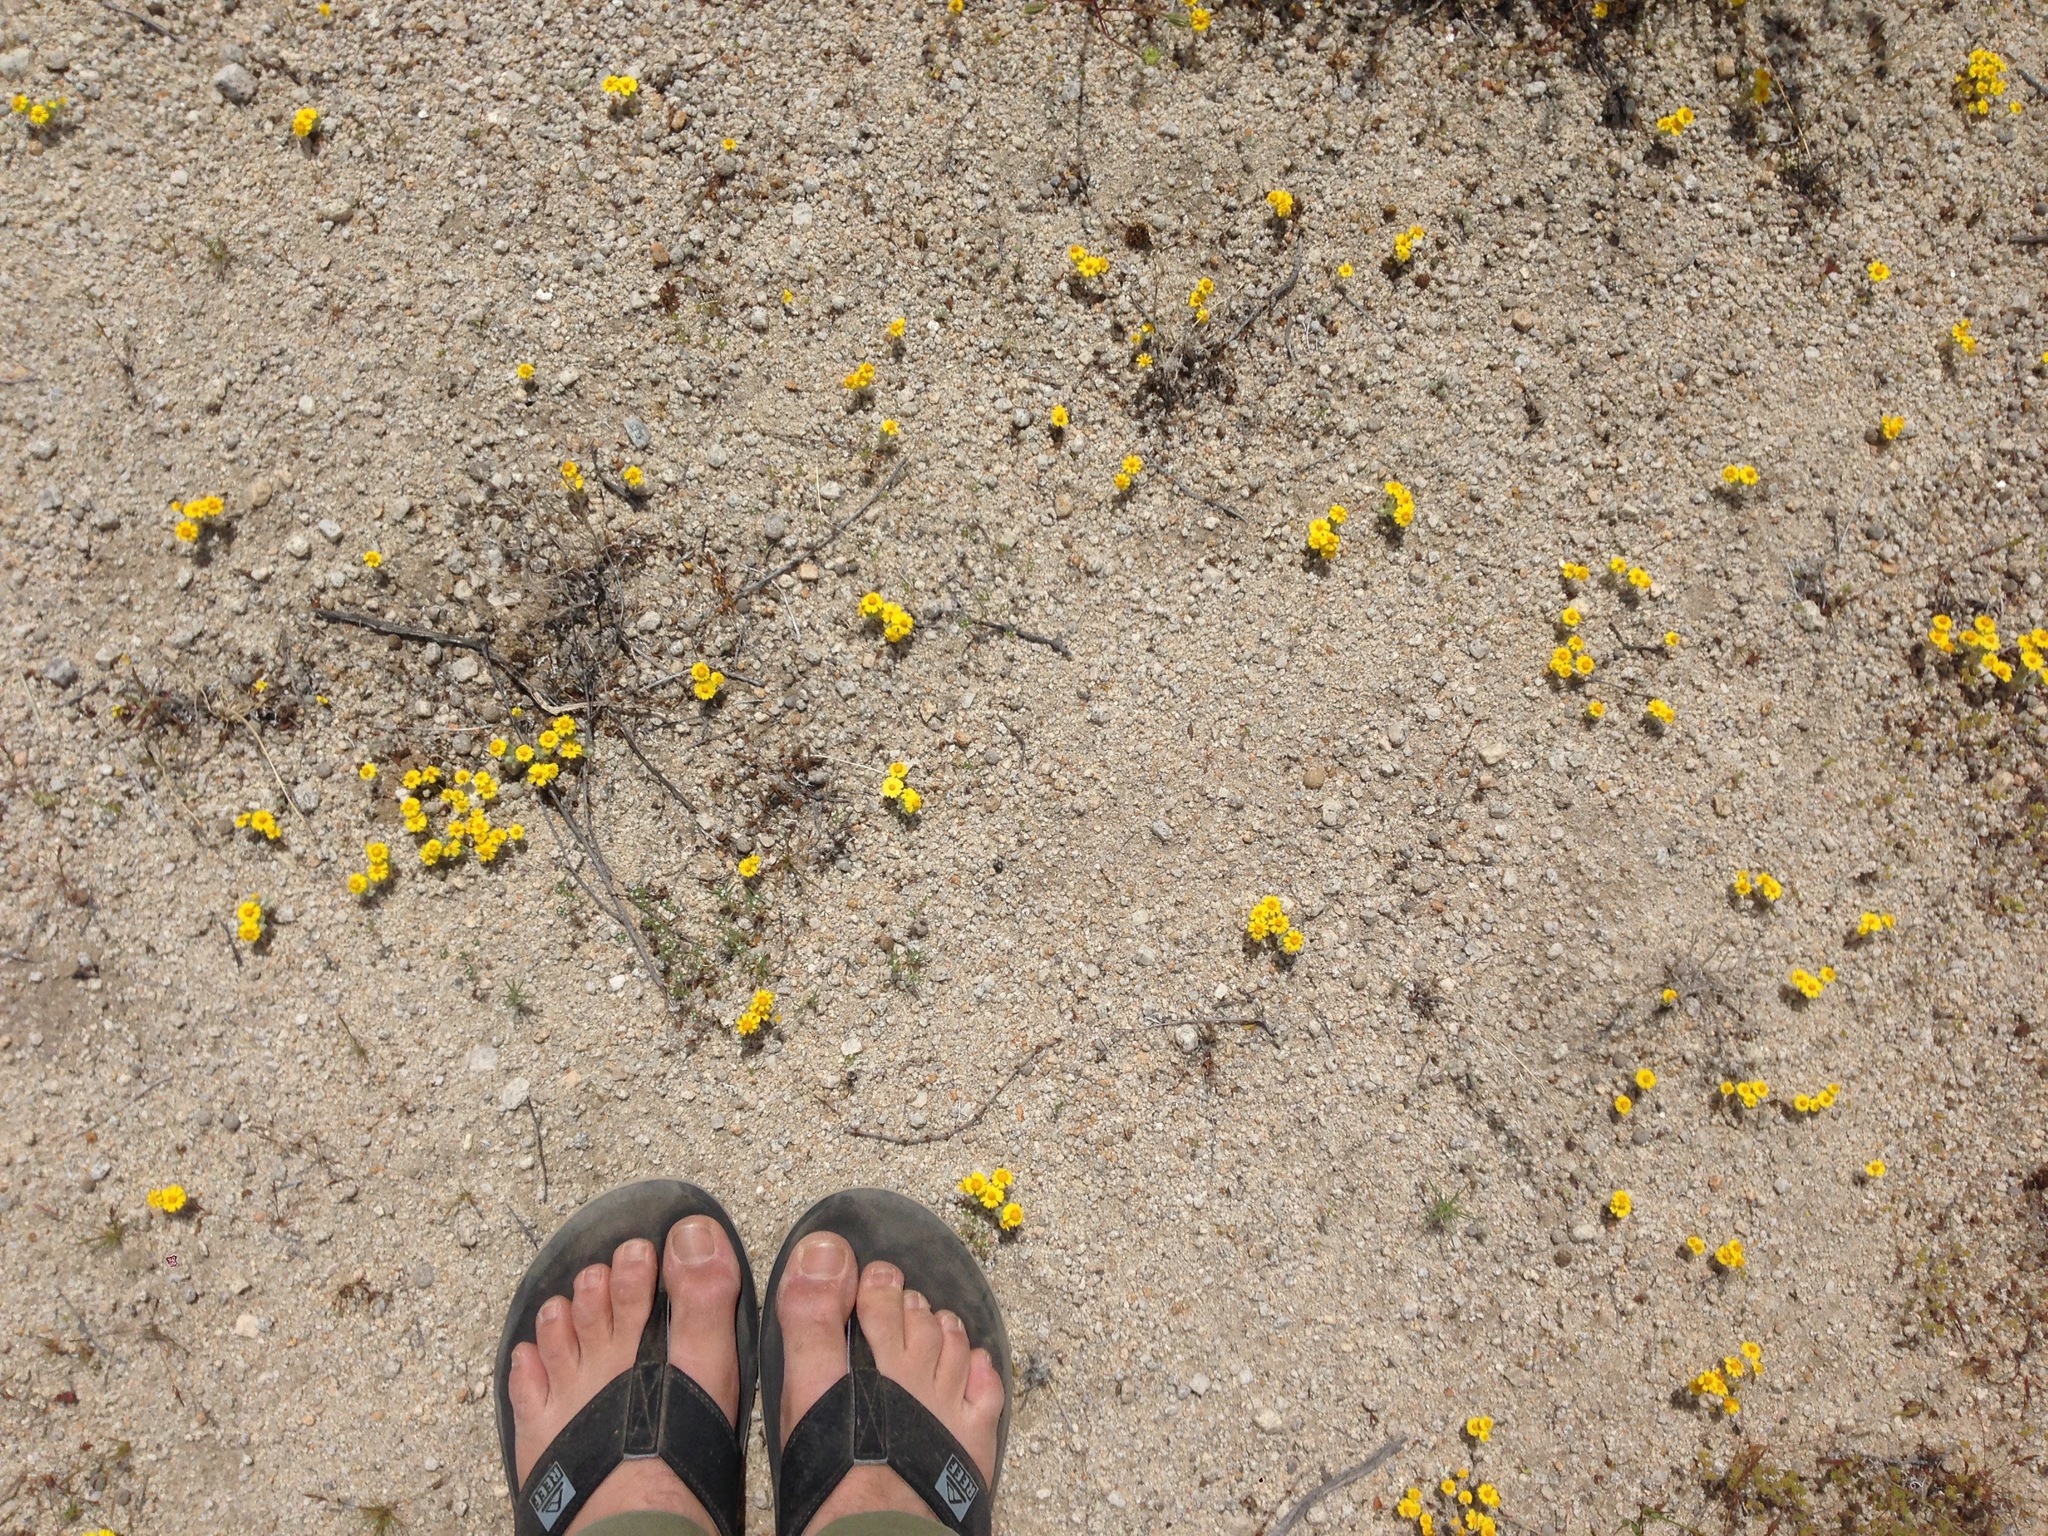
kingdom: Plantae
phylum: Tracheophyta
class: Magnoliopsida
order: Asterales
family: Asteraceae
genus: Eriophyllum
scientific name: Eriophyllum wallacei
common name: Wallace's woolly daisy
